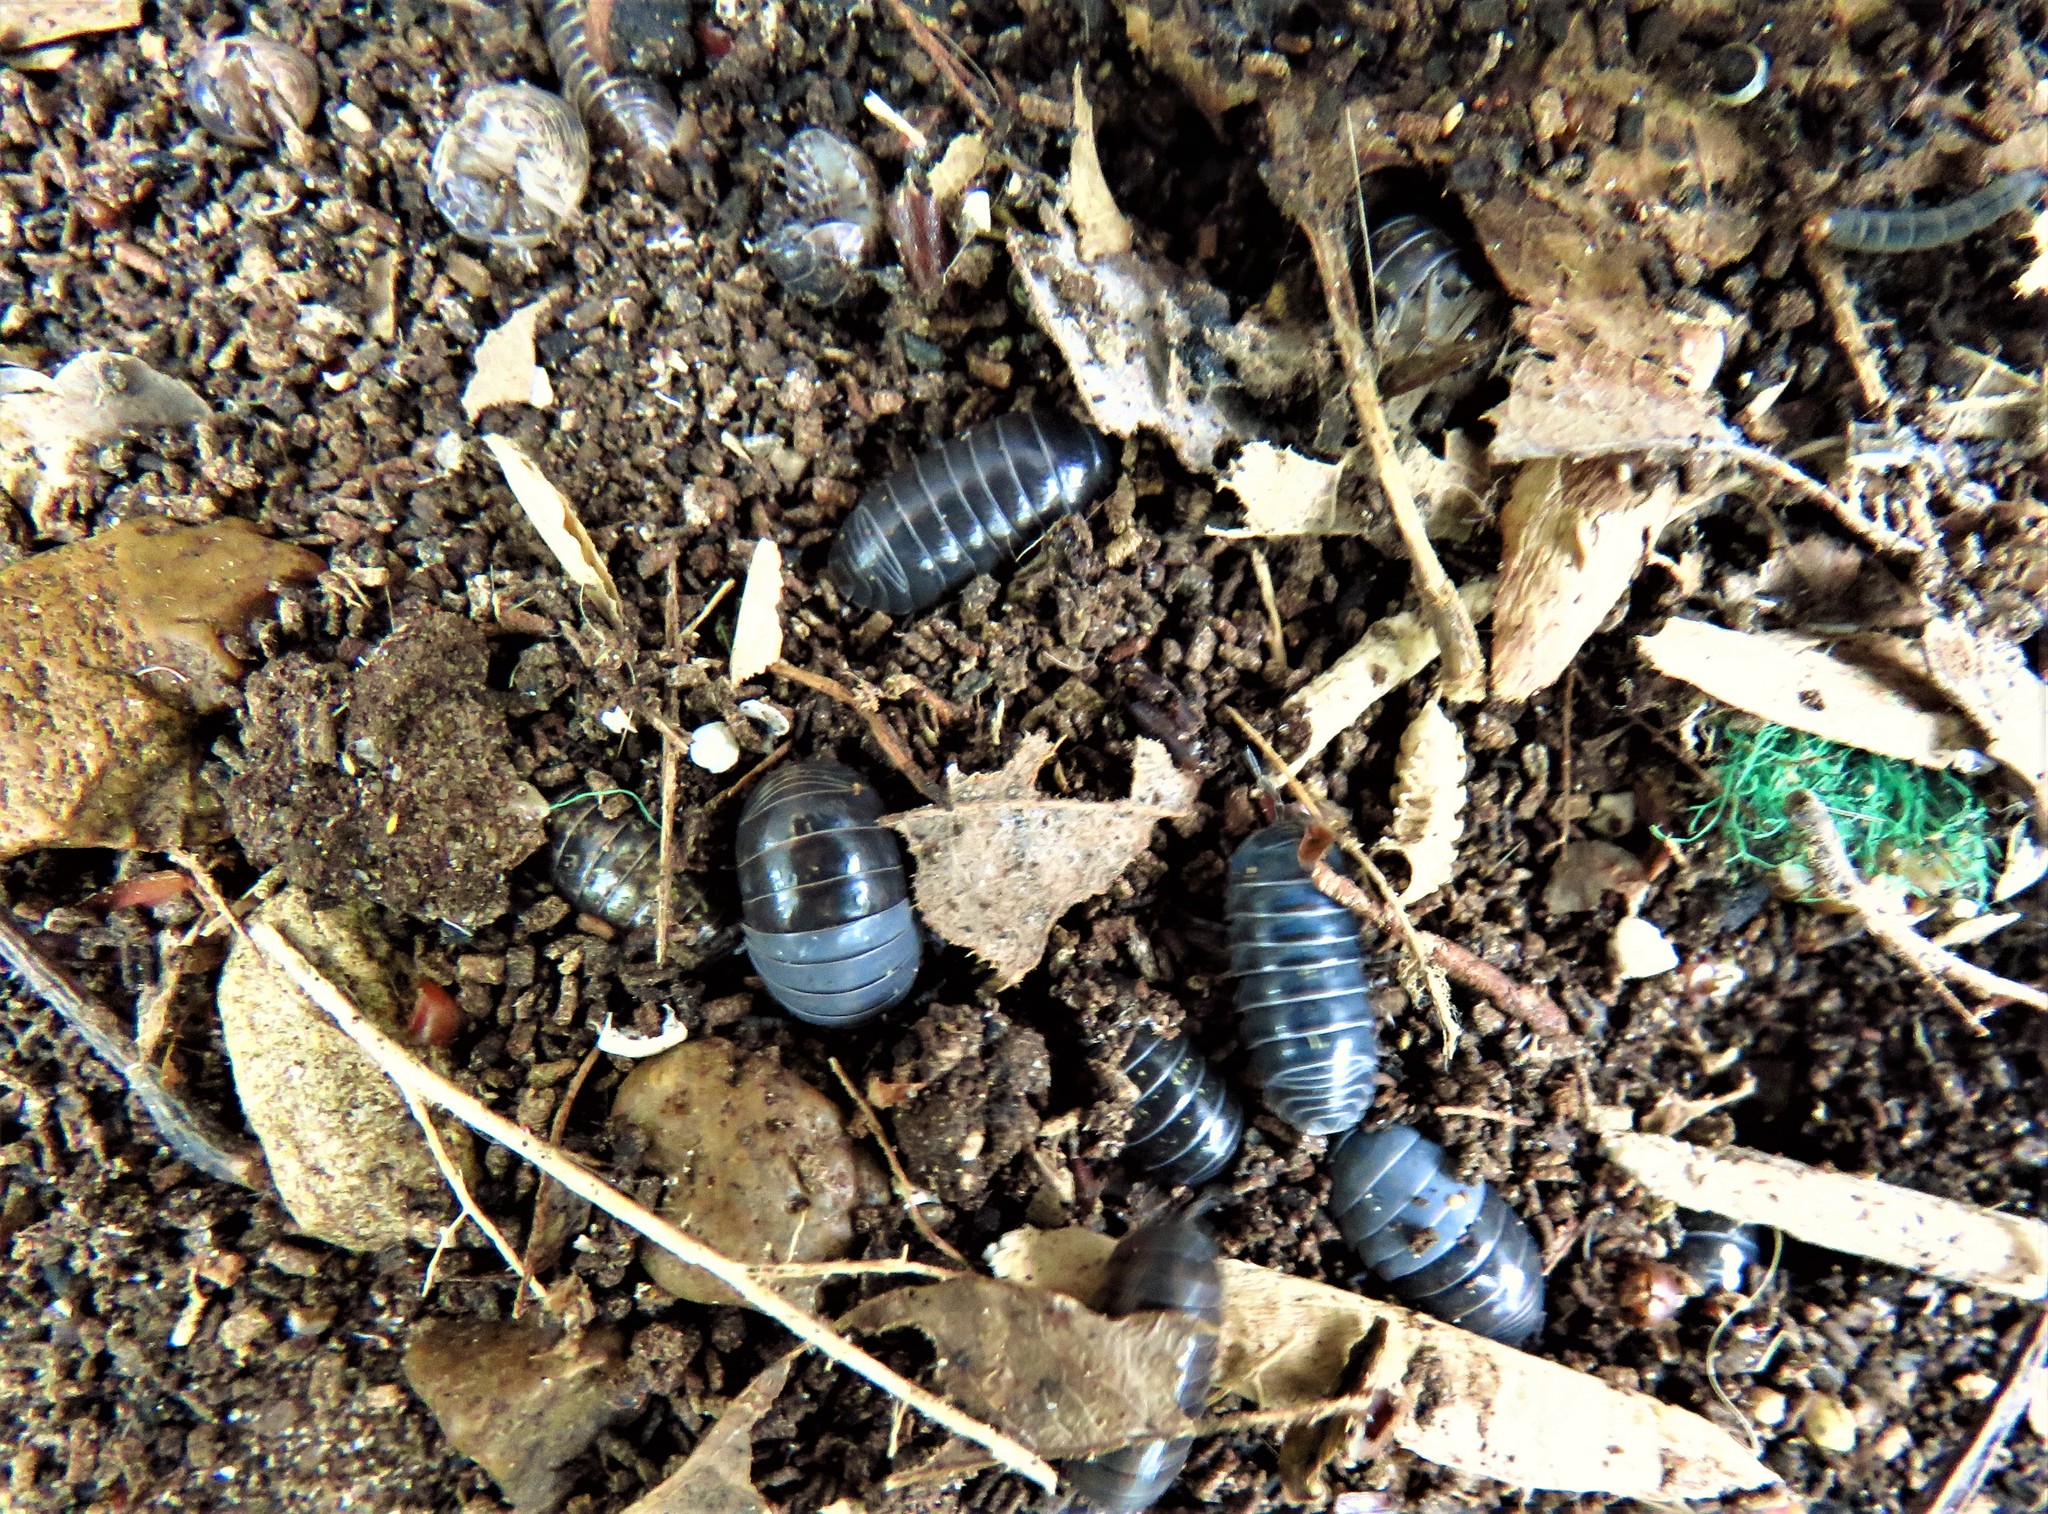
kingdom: Animalia
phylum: Arthropoda
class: Malacostraca
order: Isopoda
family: Armadillidiidae
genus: Armadillidium
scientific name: Armadillidium vulgare
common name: Common pill woodlouse
